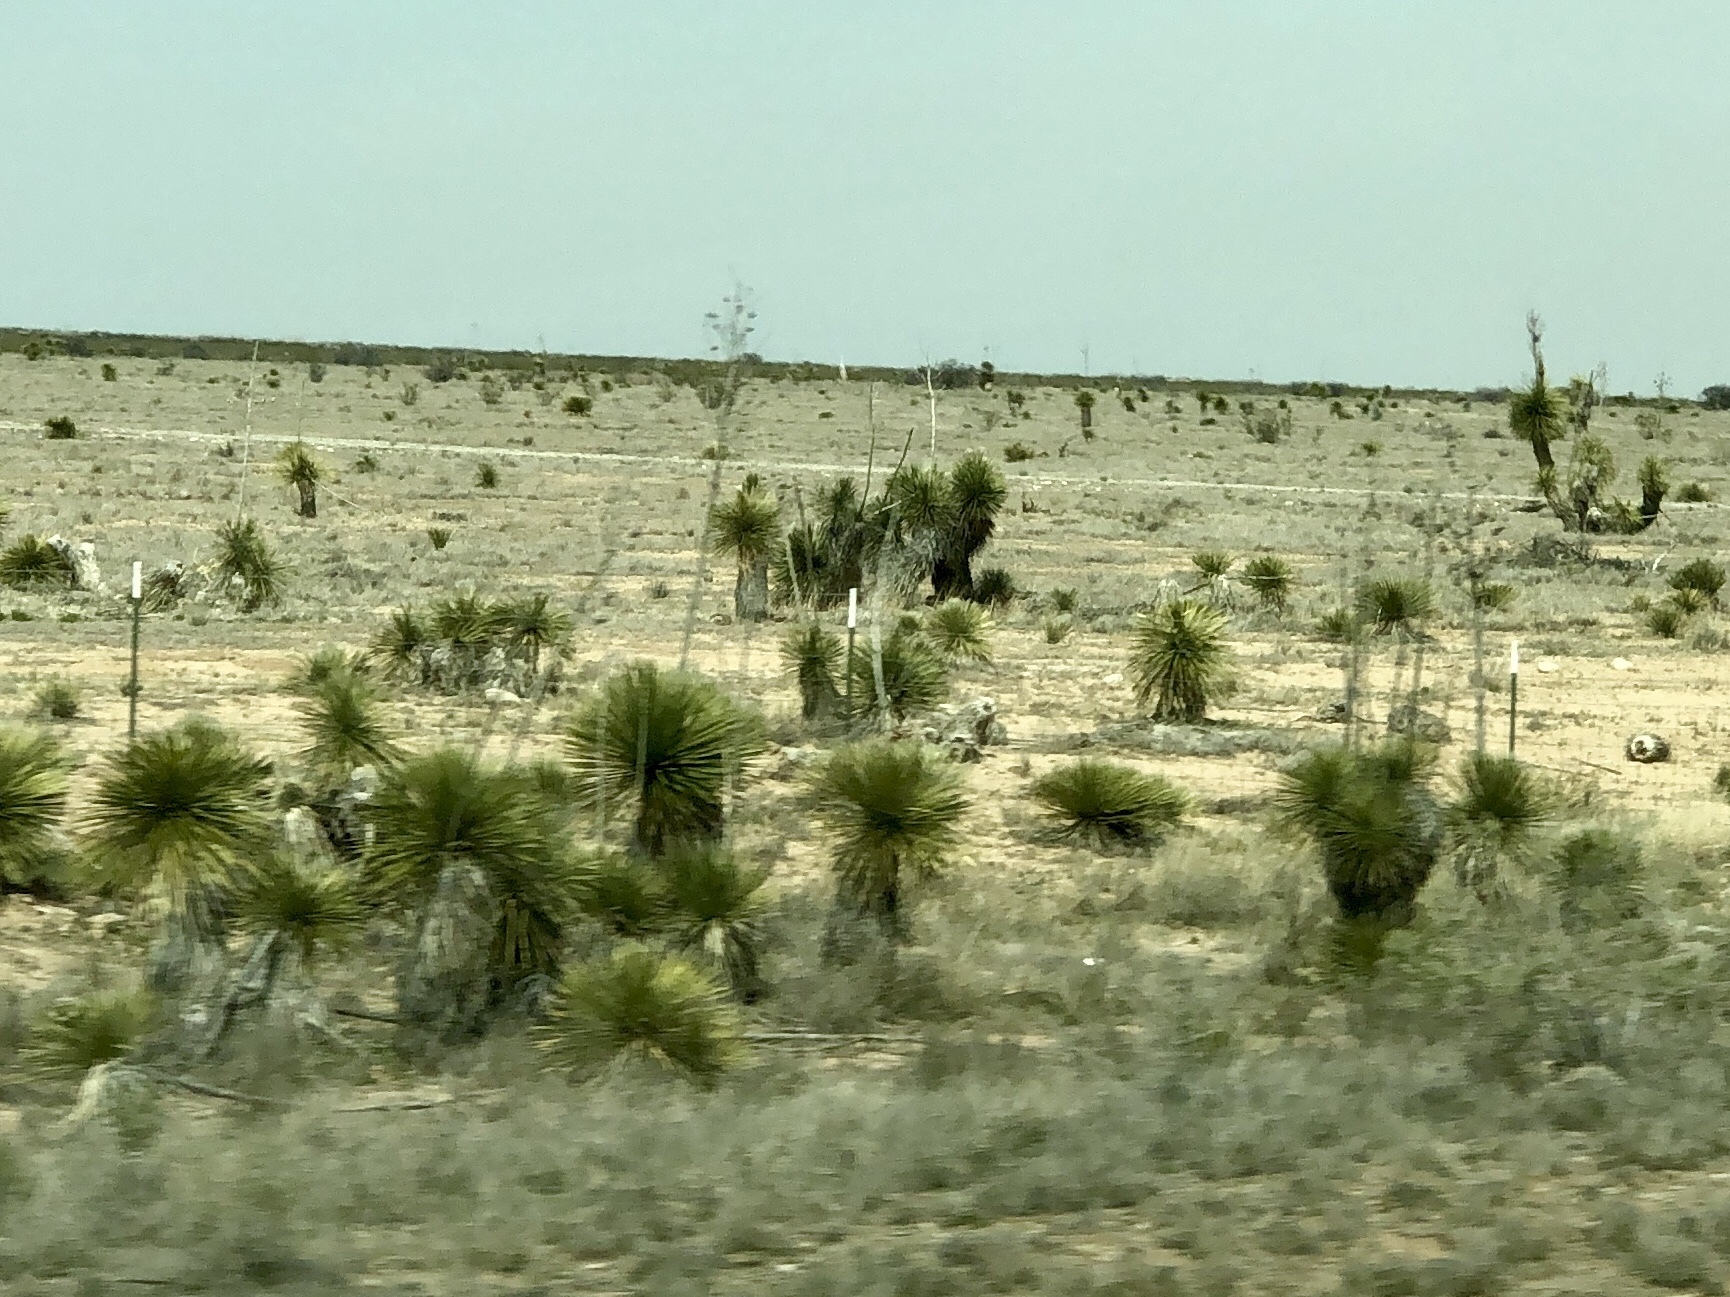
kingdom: Plantae
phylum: Tracheophyta
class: Liliopsida
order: Asparagales
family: Asparagaceae
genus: Yucca
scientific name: Yucca elata
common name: Palmella
